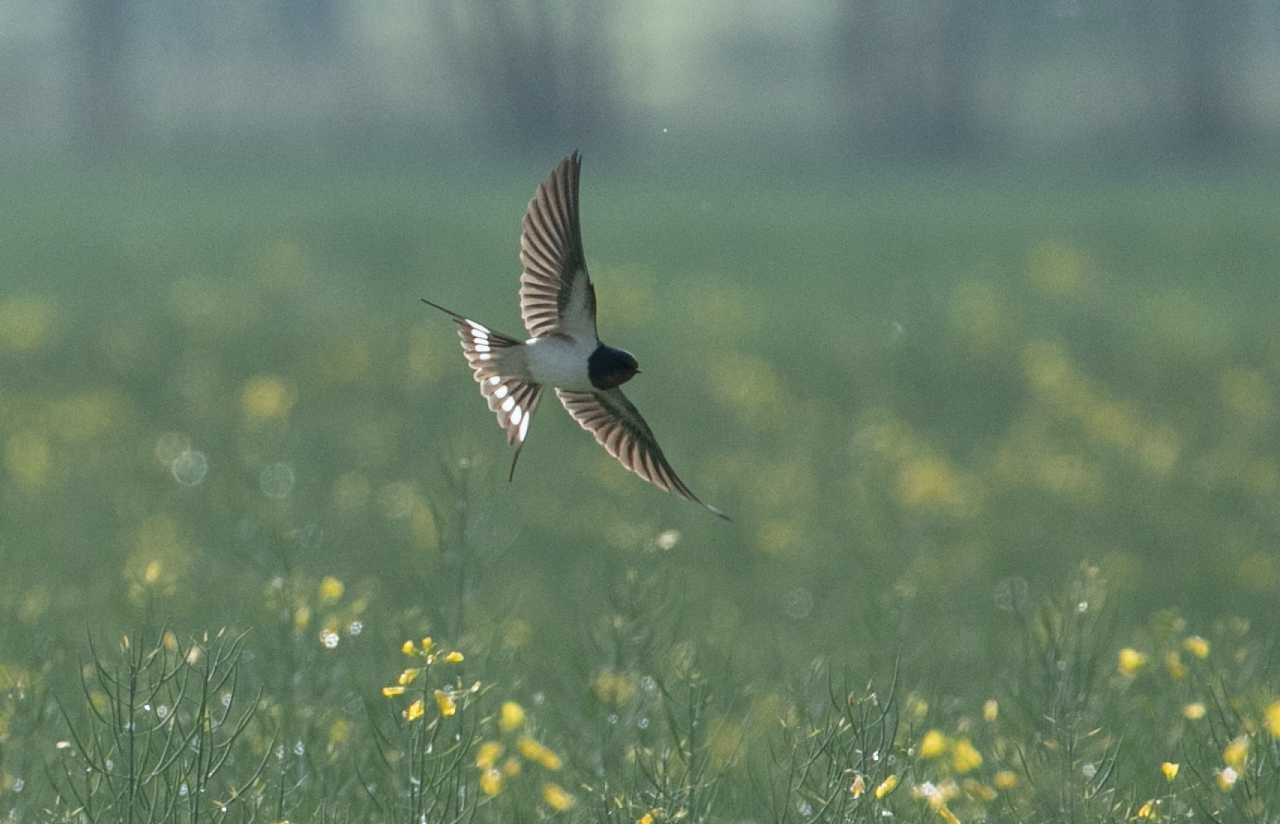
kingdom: Animalia
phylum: Chordata
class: Aves
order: Passeriformes
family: Hirundinidae
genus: Hirundo
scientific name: Hirundo rustica
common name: Barn swallow
